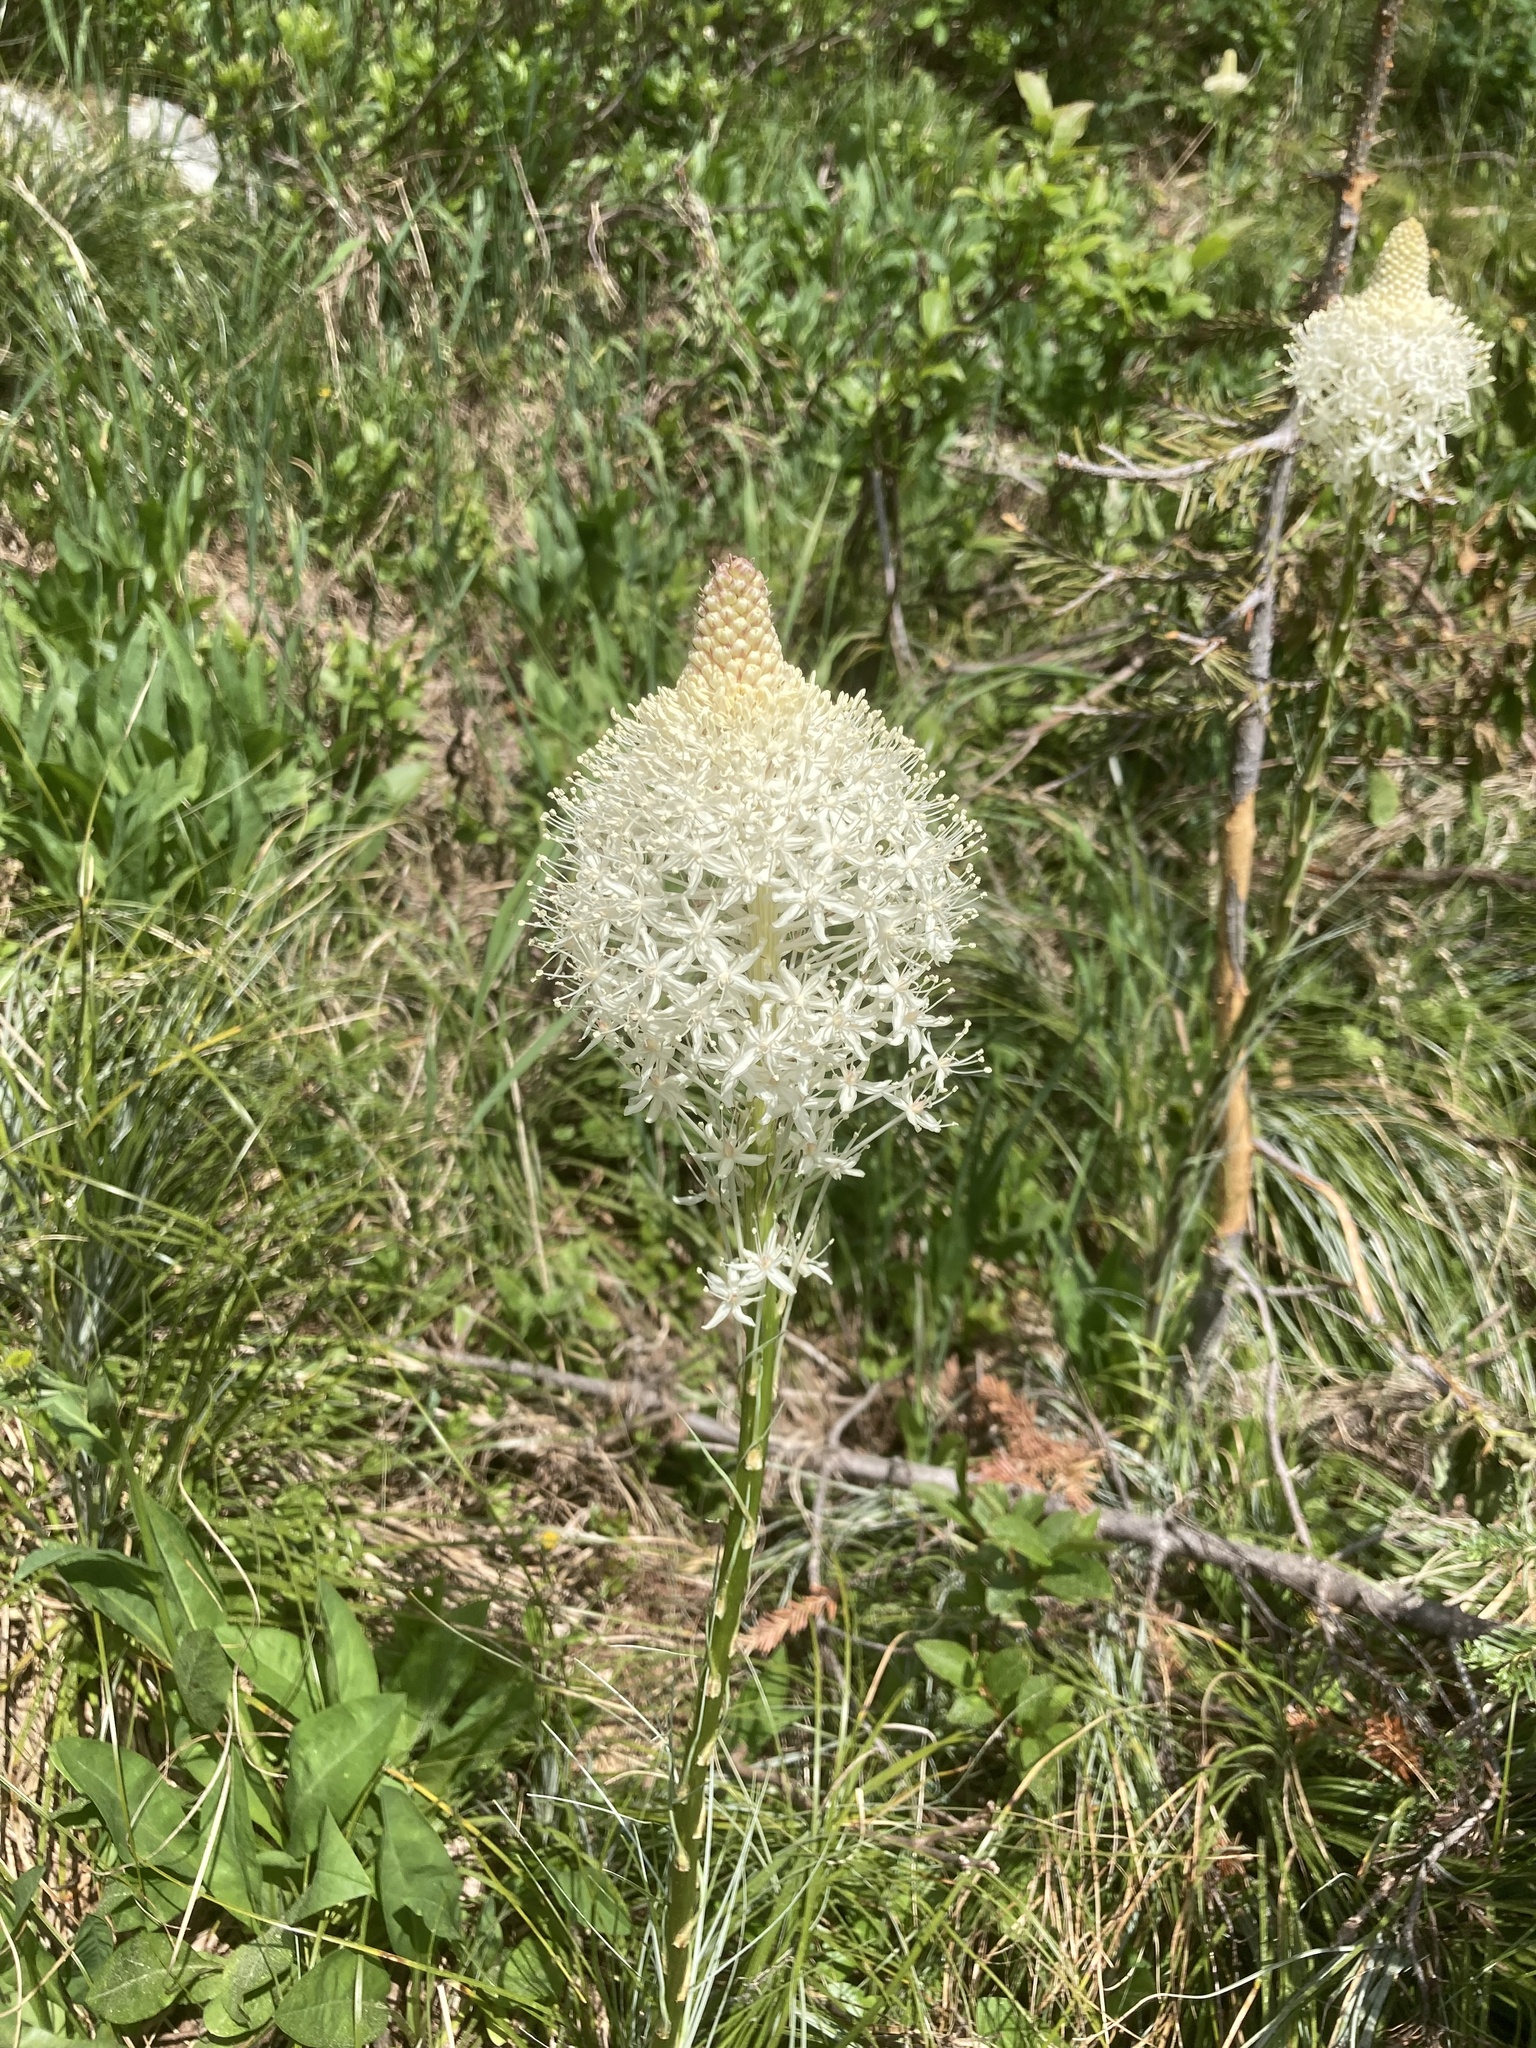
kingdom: Plantae
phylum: Tracheophyta
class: Liliopsida
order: Liliales
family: Melanthiaceae
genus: Xerophyllum
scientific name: Xerophyllum tenax
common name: Bear-grass
